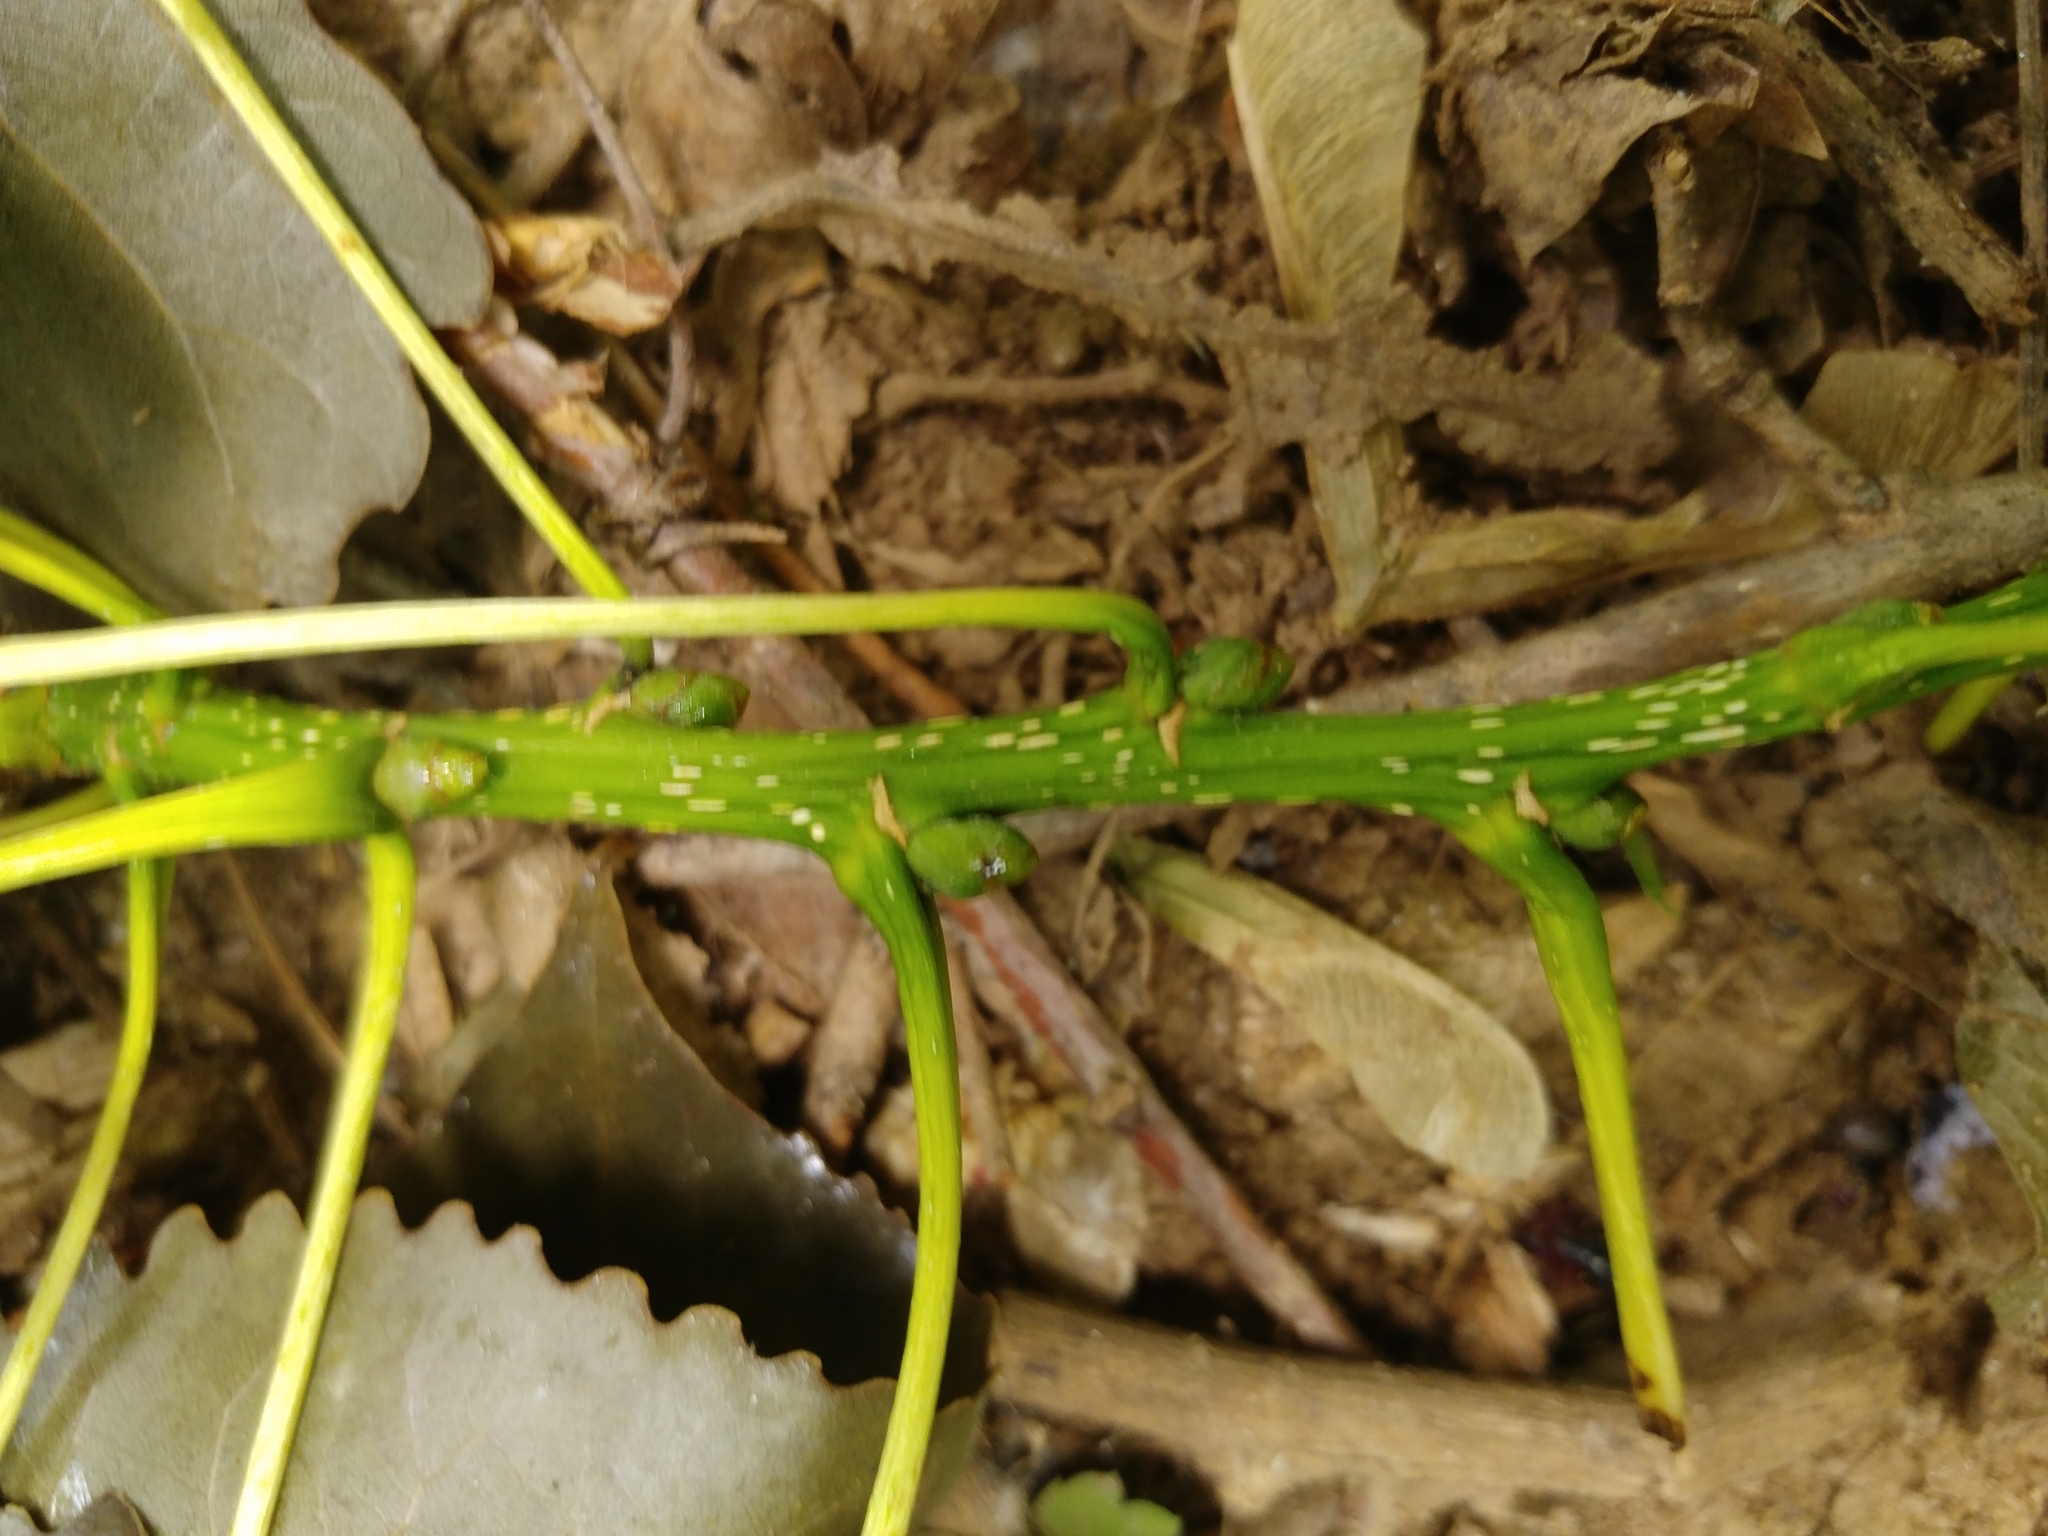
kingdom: Plantae
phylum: Tracheophyta
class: Magnoliopsida
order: Malpighiales
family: Salicaceae
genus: Populus
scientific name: Populus deltoides
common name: Eastern cottonwood
